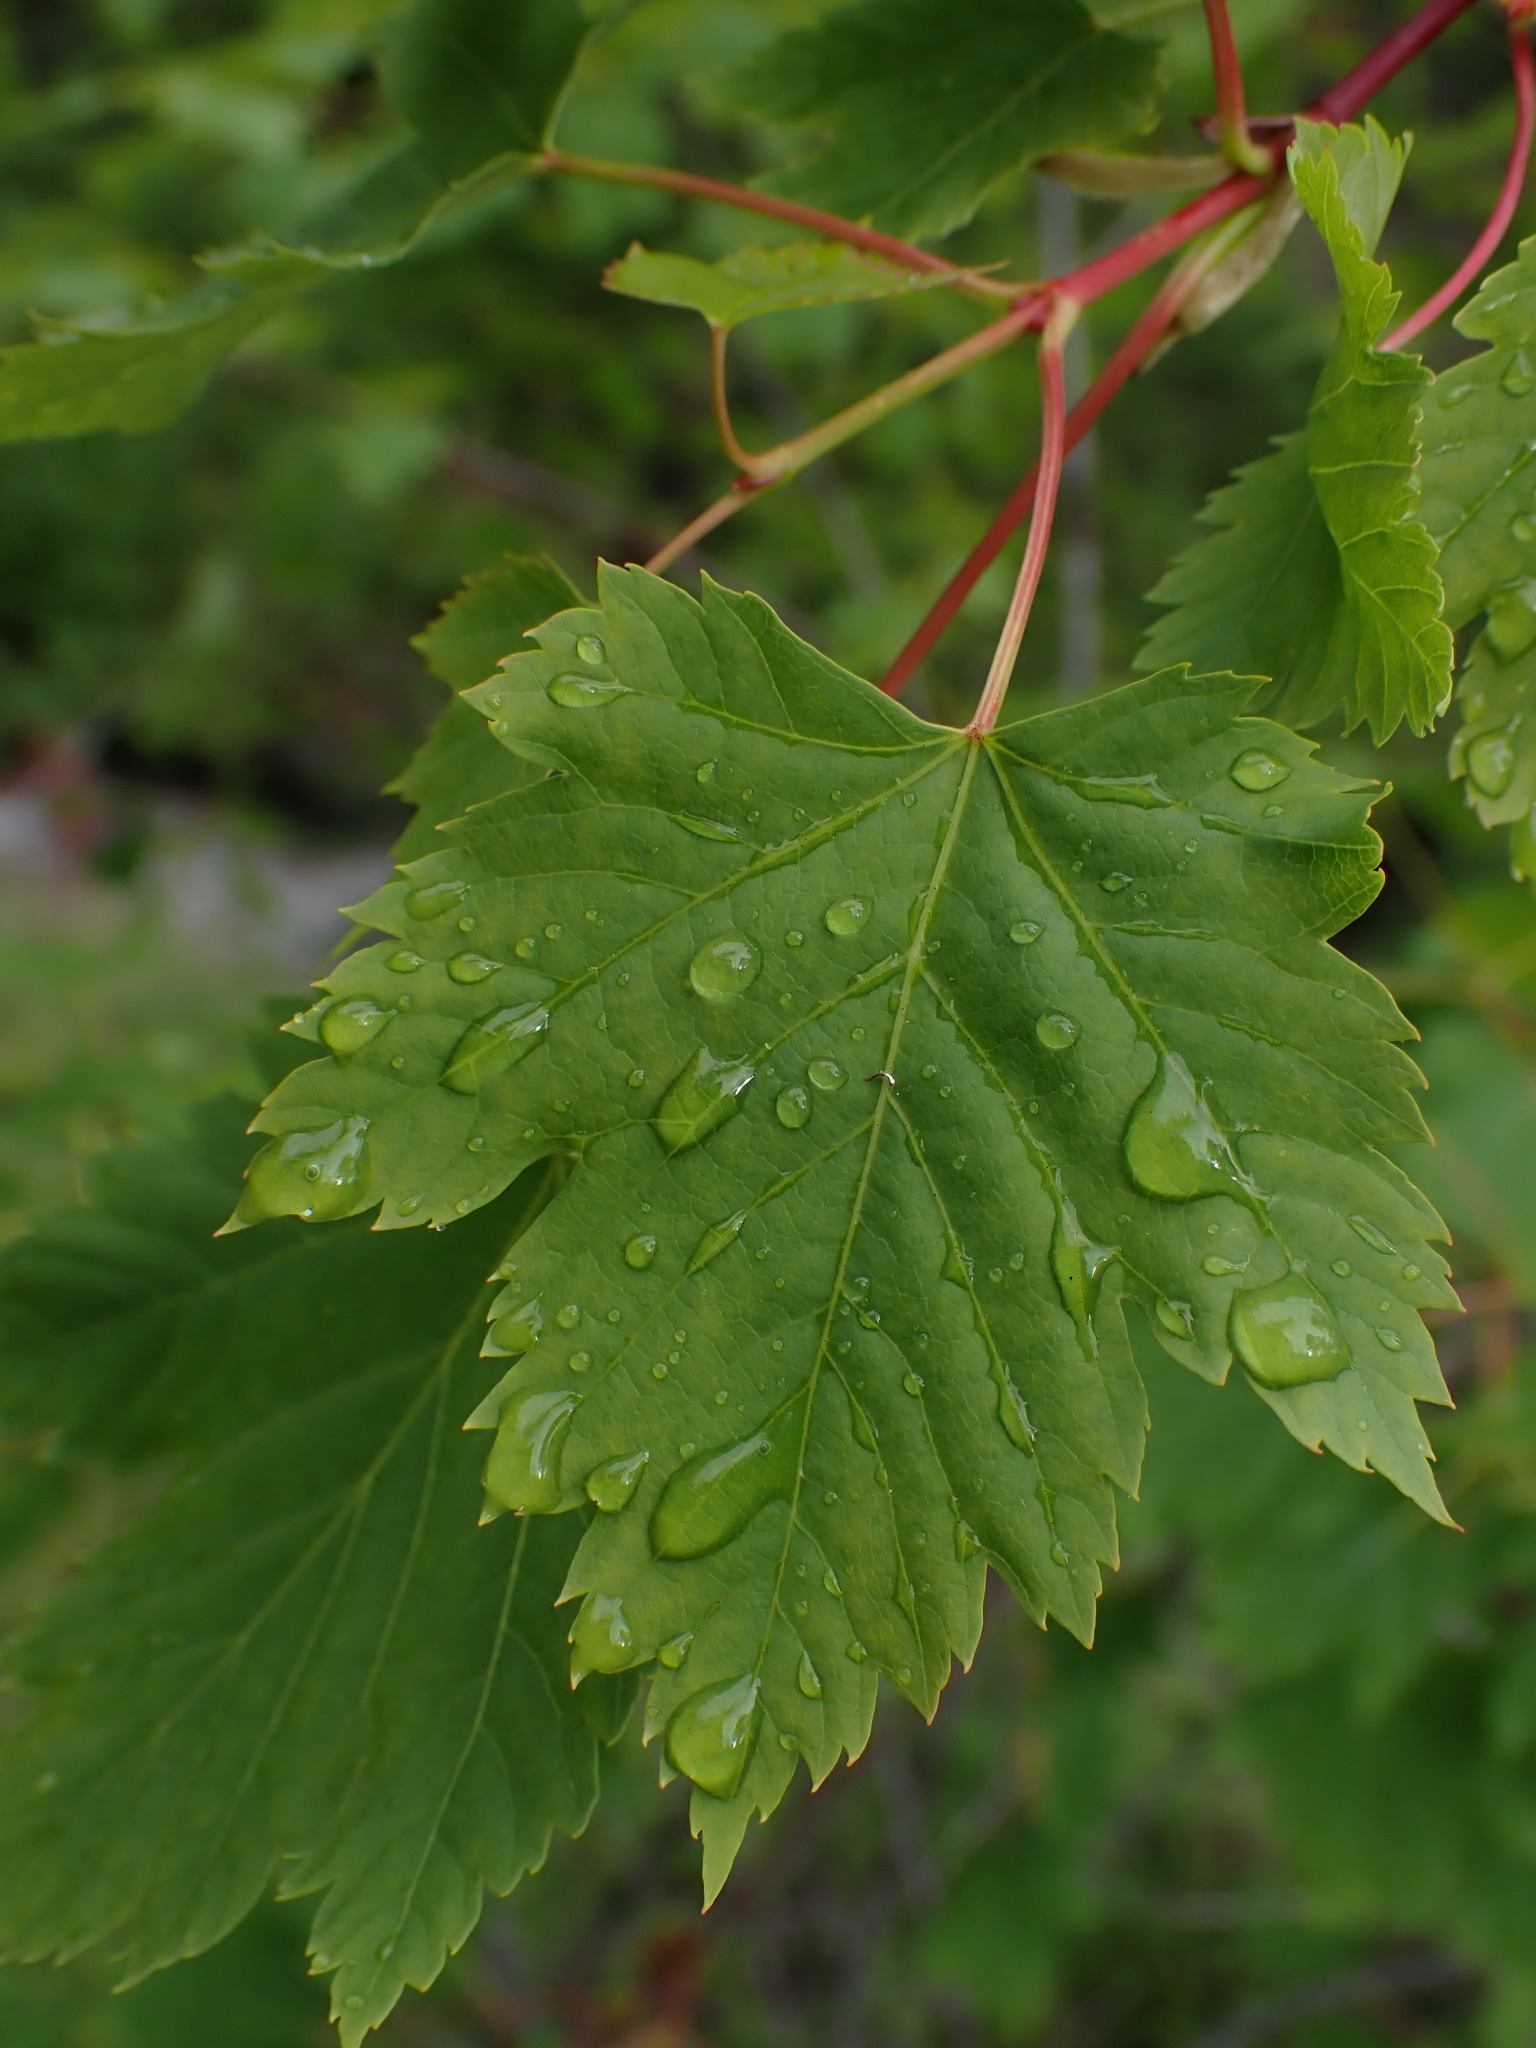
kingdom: Plantae
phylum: Tracheophyta
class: Magnoliopsida
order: Sapindales
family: Sapindaceae
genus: Acer
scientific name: Acer glabrum
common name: Rocky mountain maple
